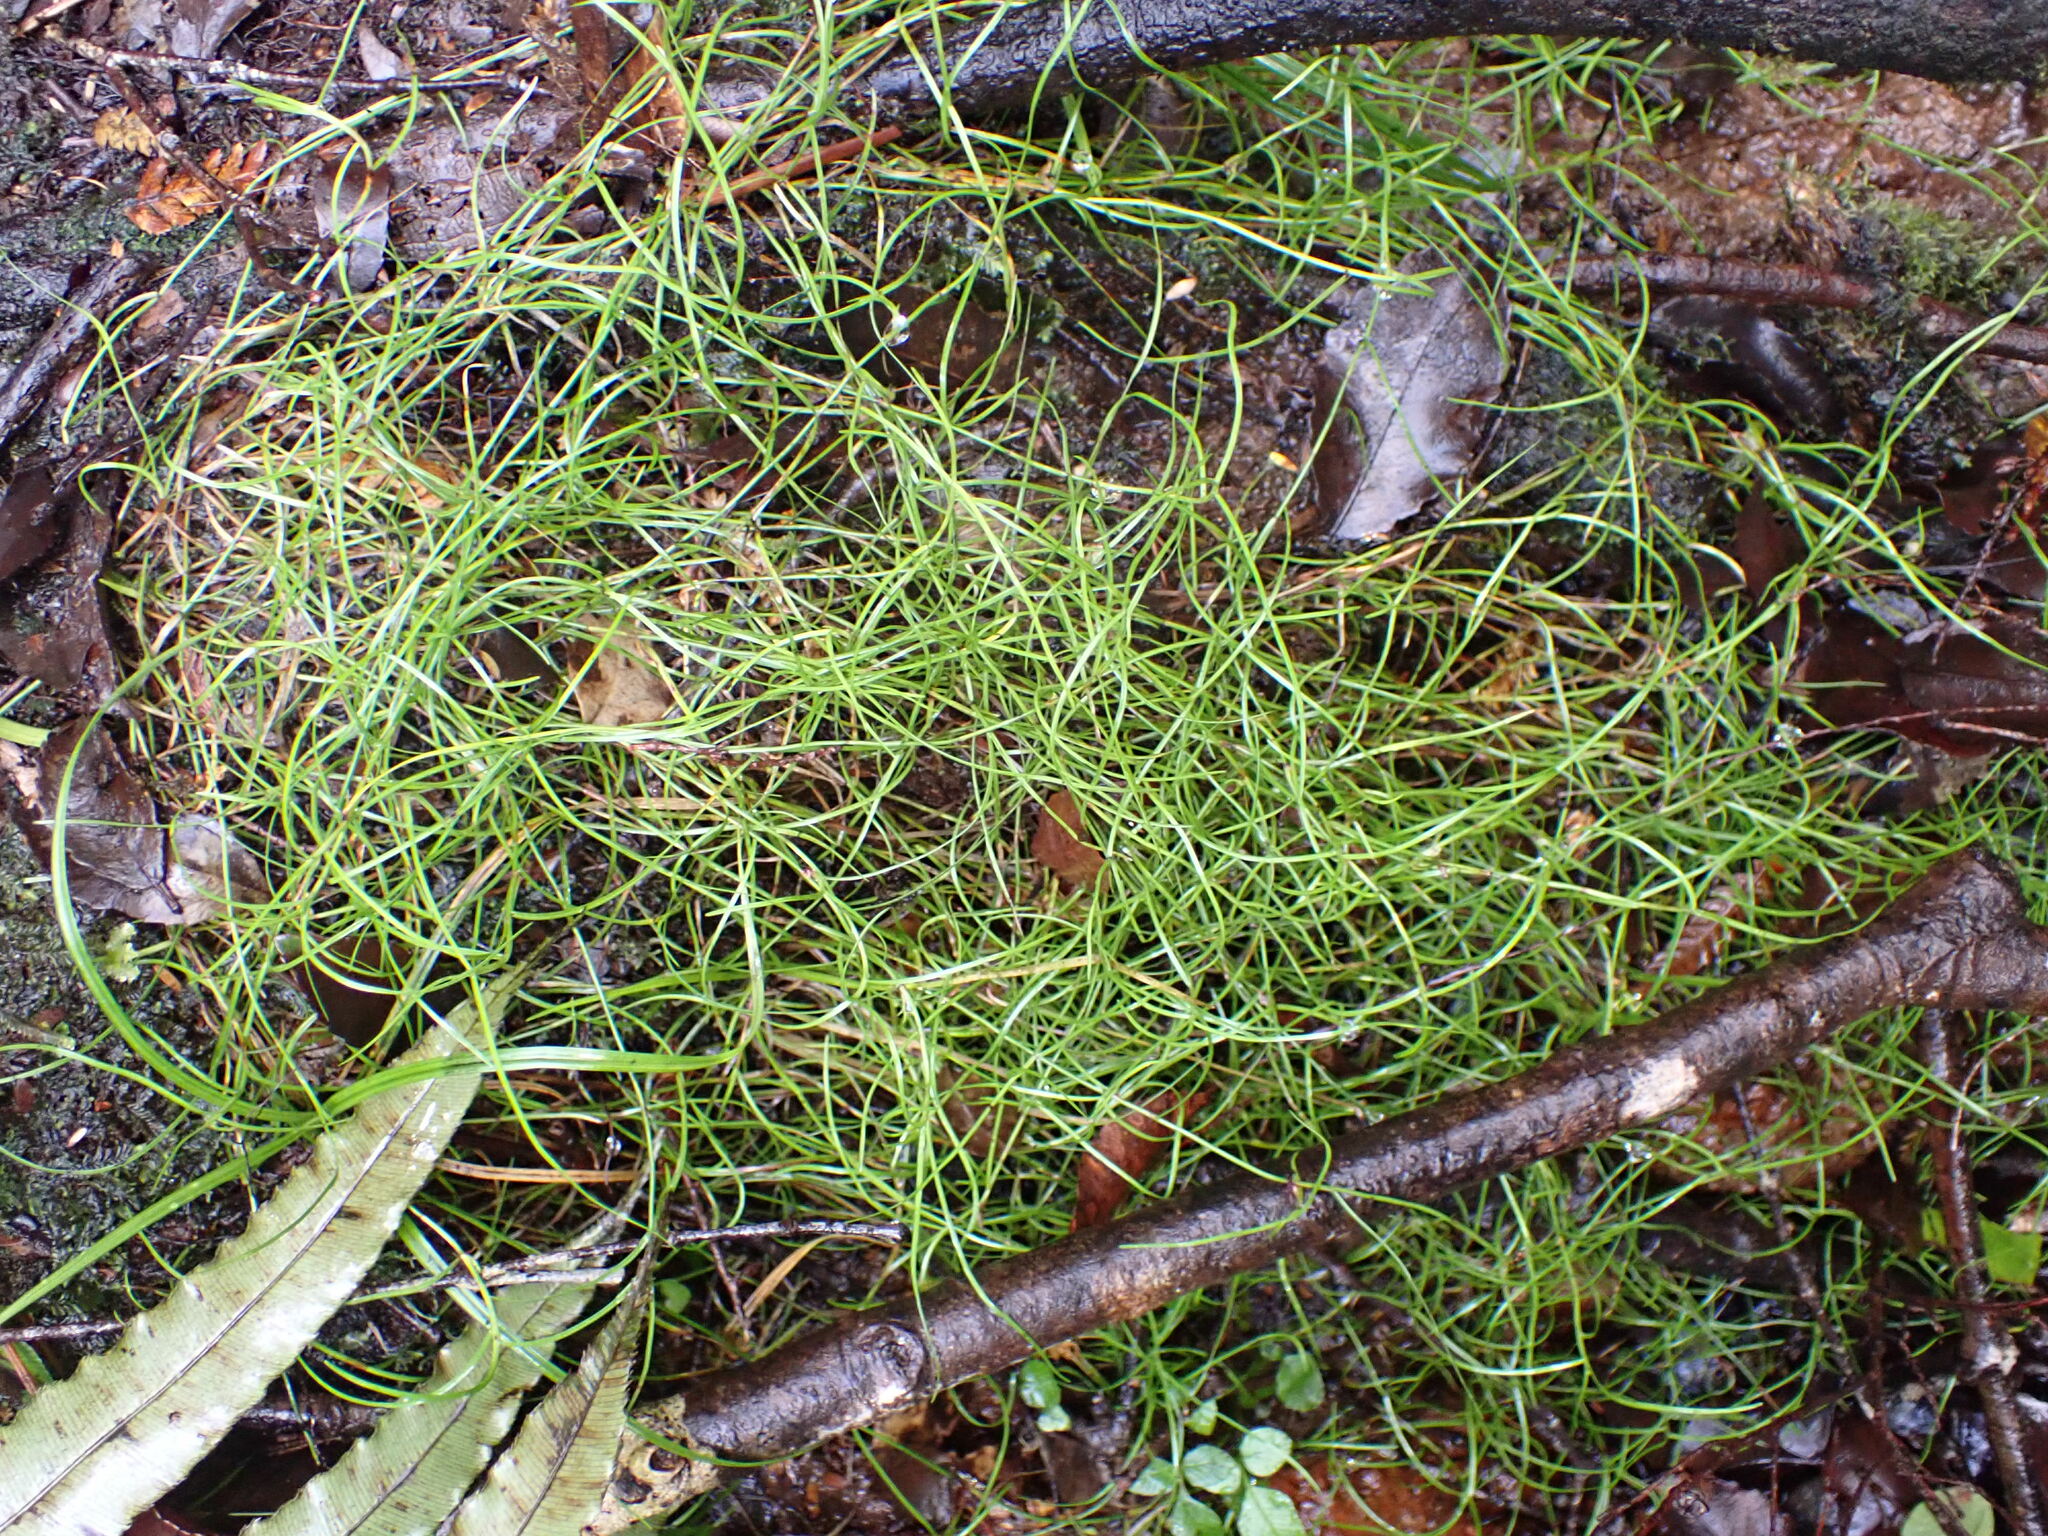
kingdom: Plantae
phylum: Tracheophyta
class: Liliopsida
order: Poales
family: Cyperaceae
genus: Schoenus
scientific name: Schoenus maschalinus
